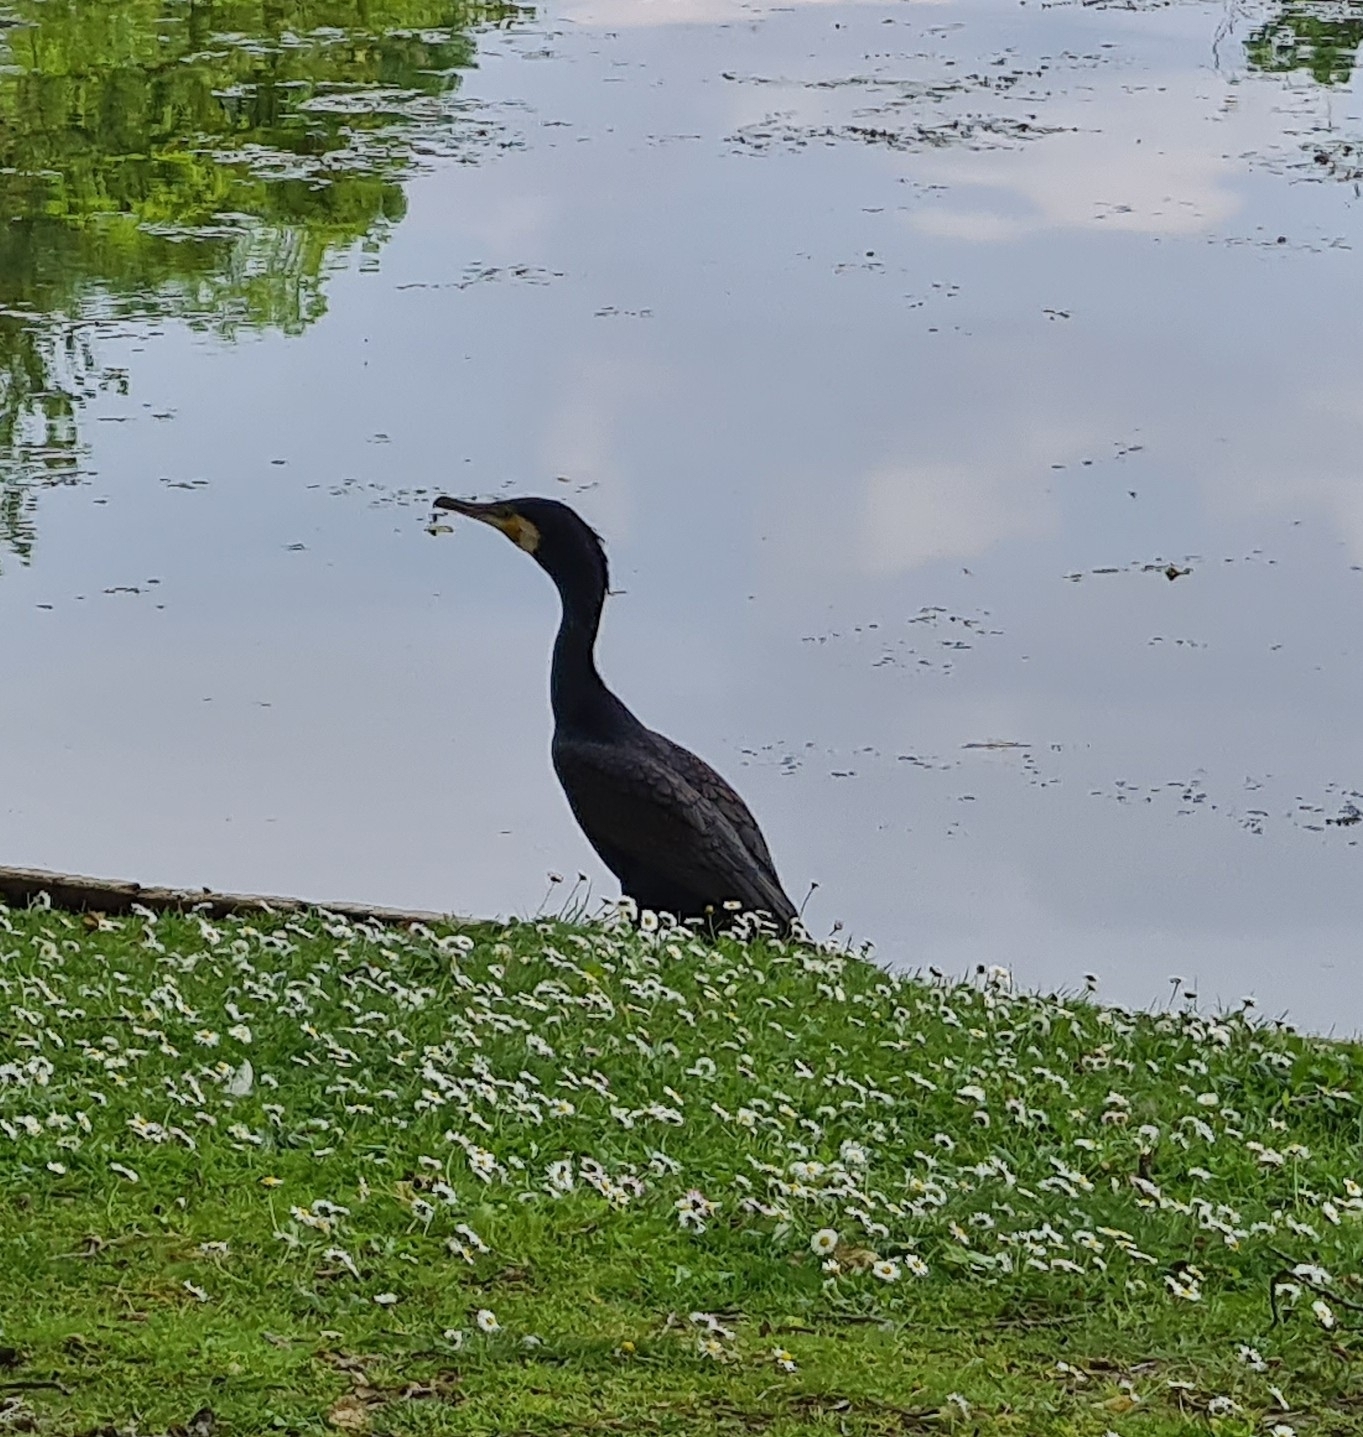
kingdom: Animalia
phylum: Chordata
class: Aves
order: Suliformes
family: Phalacrocoracidae
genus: Phalacrocorax
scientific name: Phalacrocorax carbo
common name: Great cormorant
